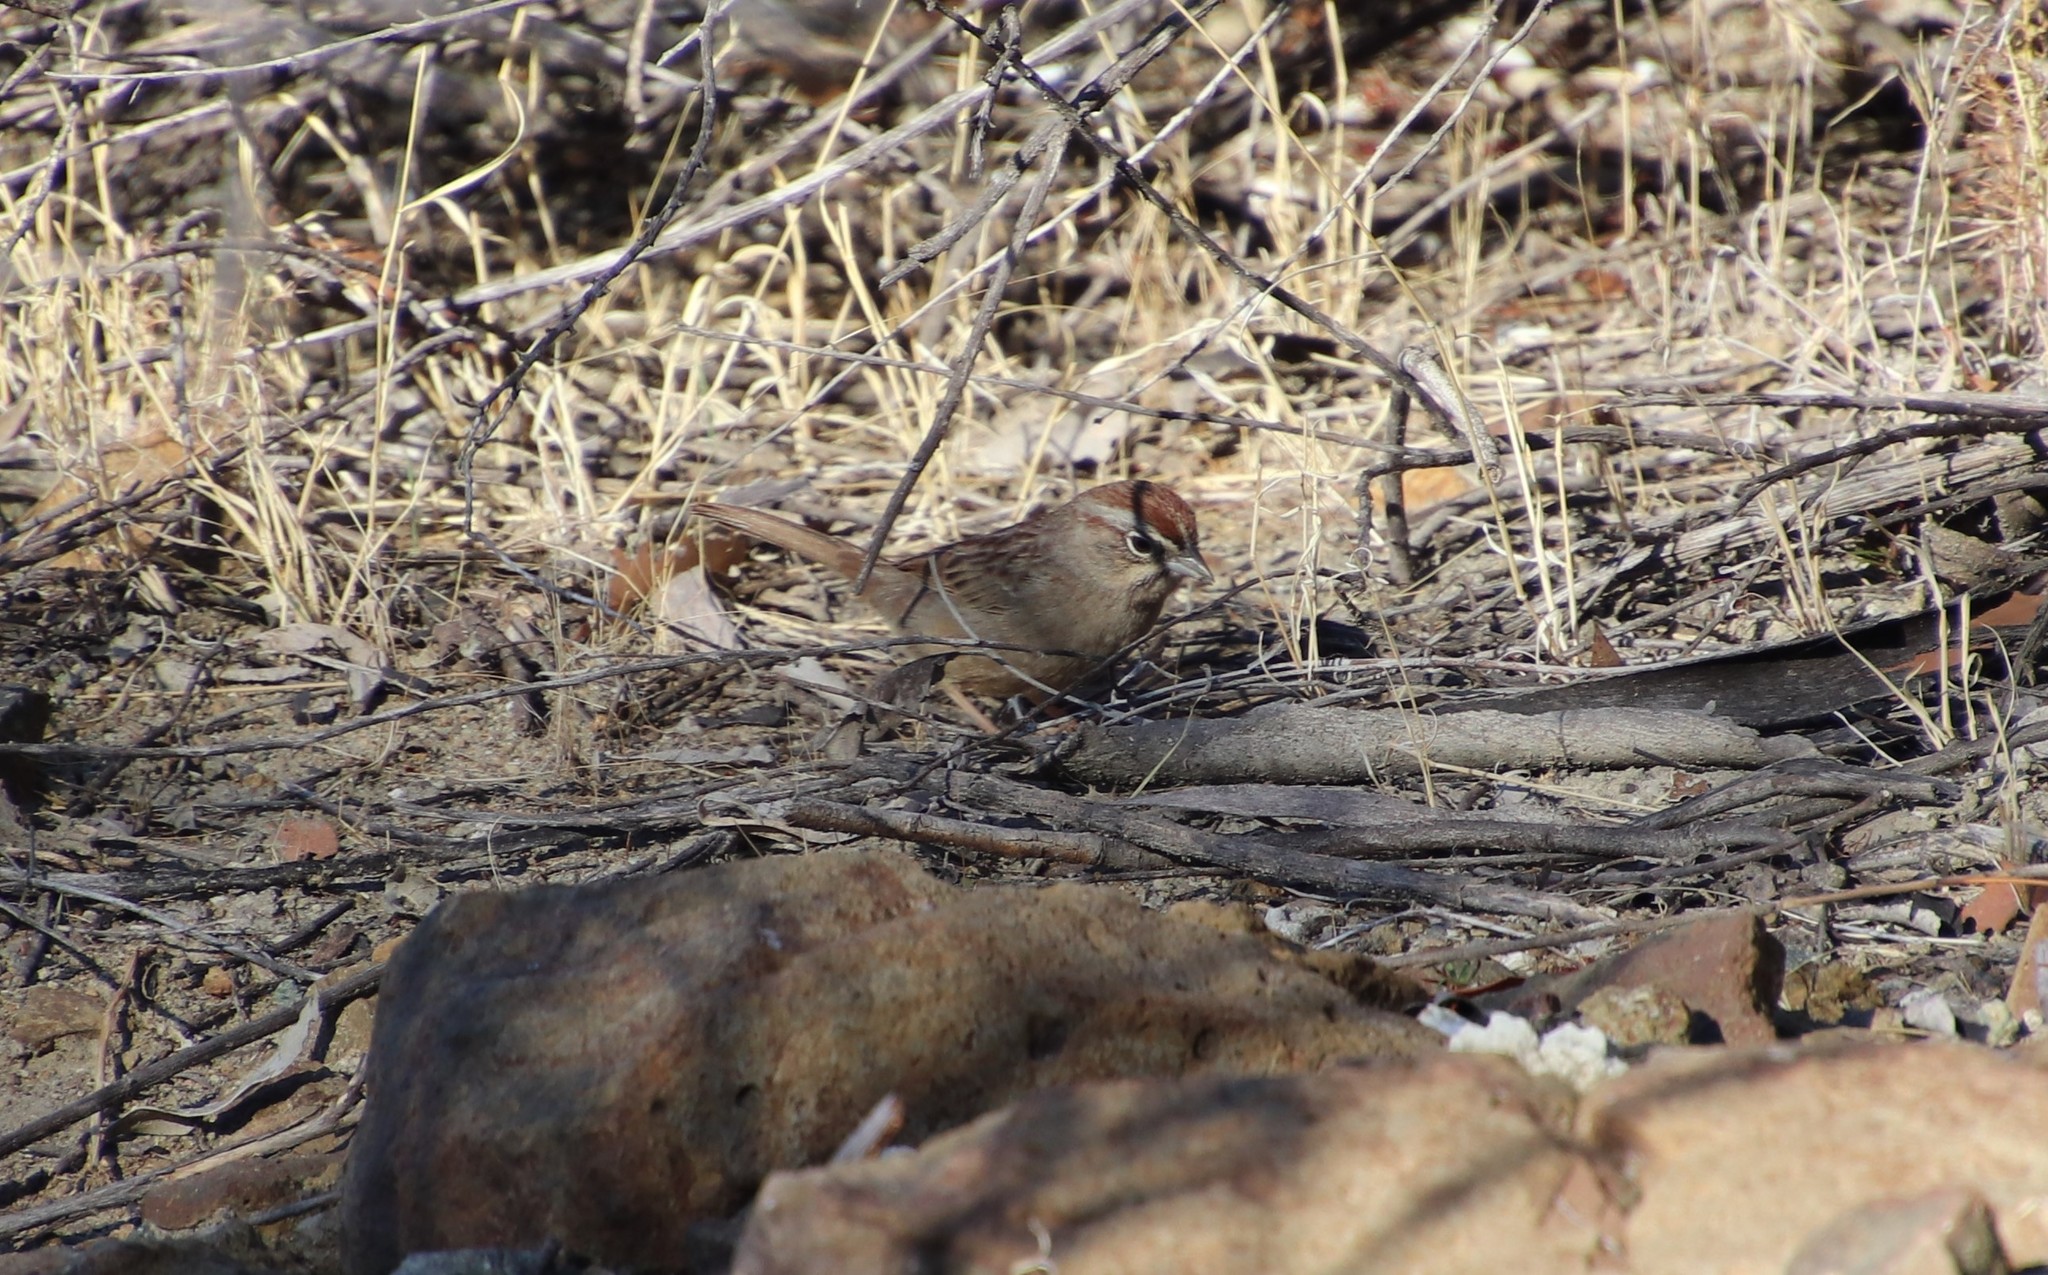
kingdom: Animalia
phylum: Chordata
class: Aves
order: Passeriformes
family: Passerellidae
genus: Aimophila
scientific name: Aimophila ruficeps
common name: Rufous-crowned sparrow
